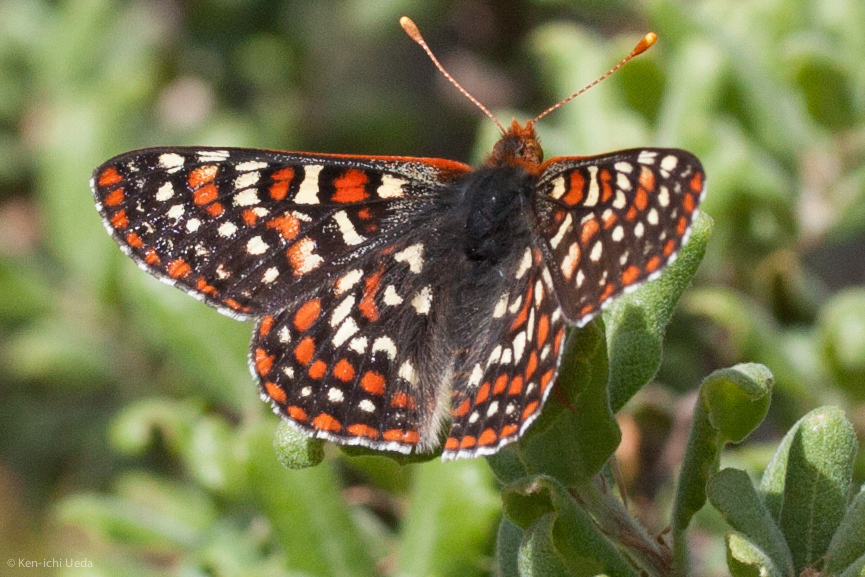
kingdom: Animalia
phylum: Arthropoda
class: Insecta
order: Lepidoptera
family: Nymphalidae
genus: Occidryas
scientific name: Occidryas editha
